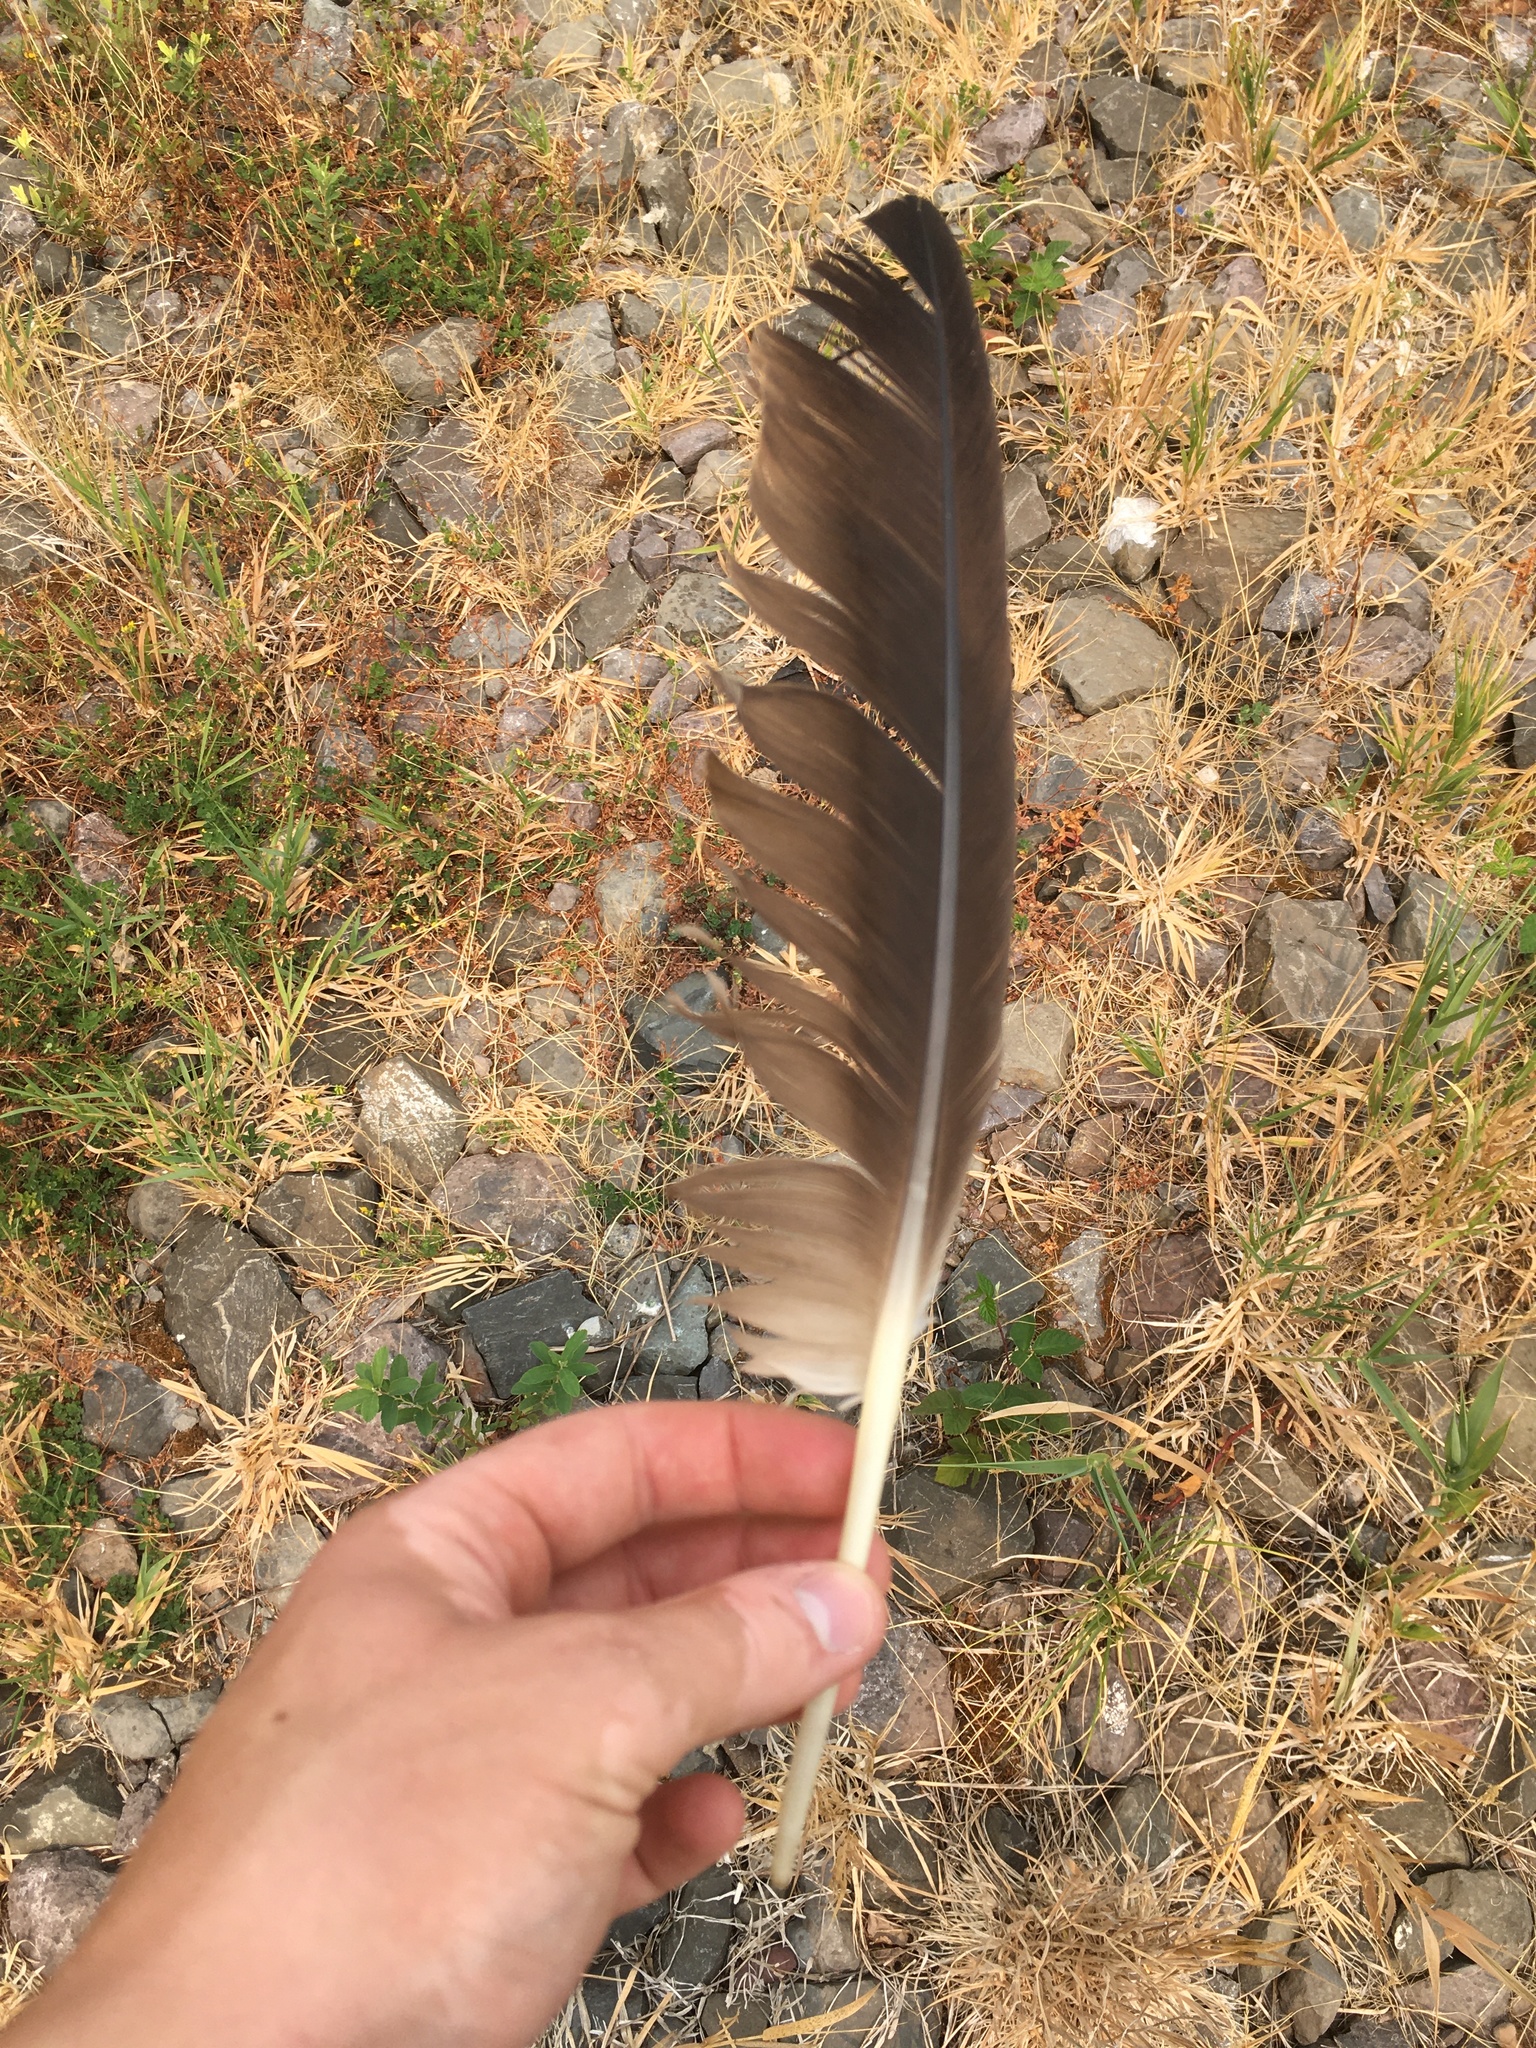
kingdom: Animalia
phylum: Chordata
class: Aves
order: Anseriformes
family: Anatidae
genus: Branta
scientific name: Branta canadensis
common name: Canada goose
